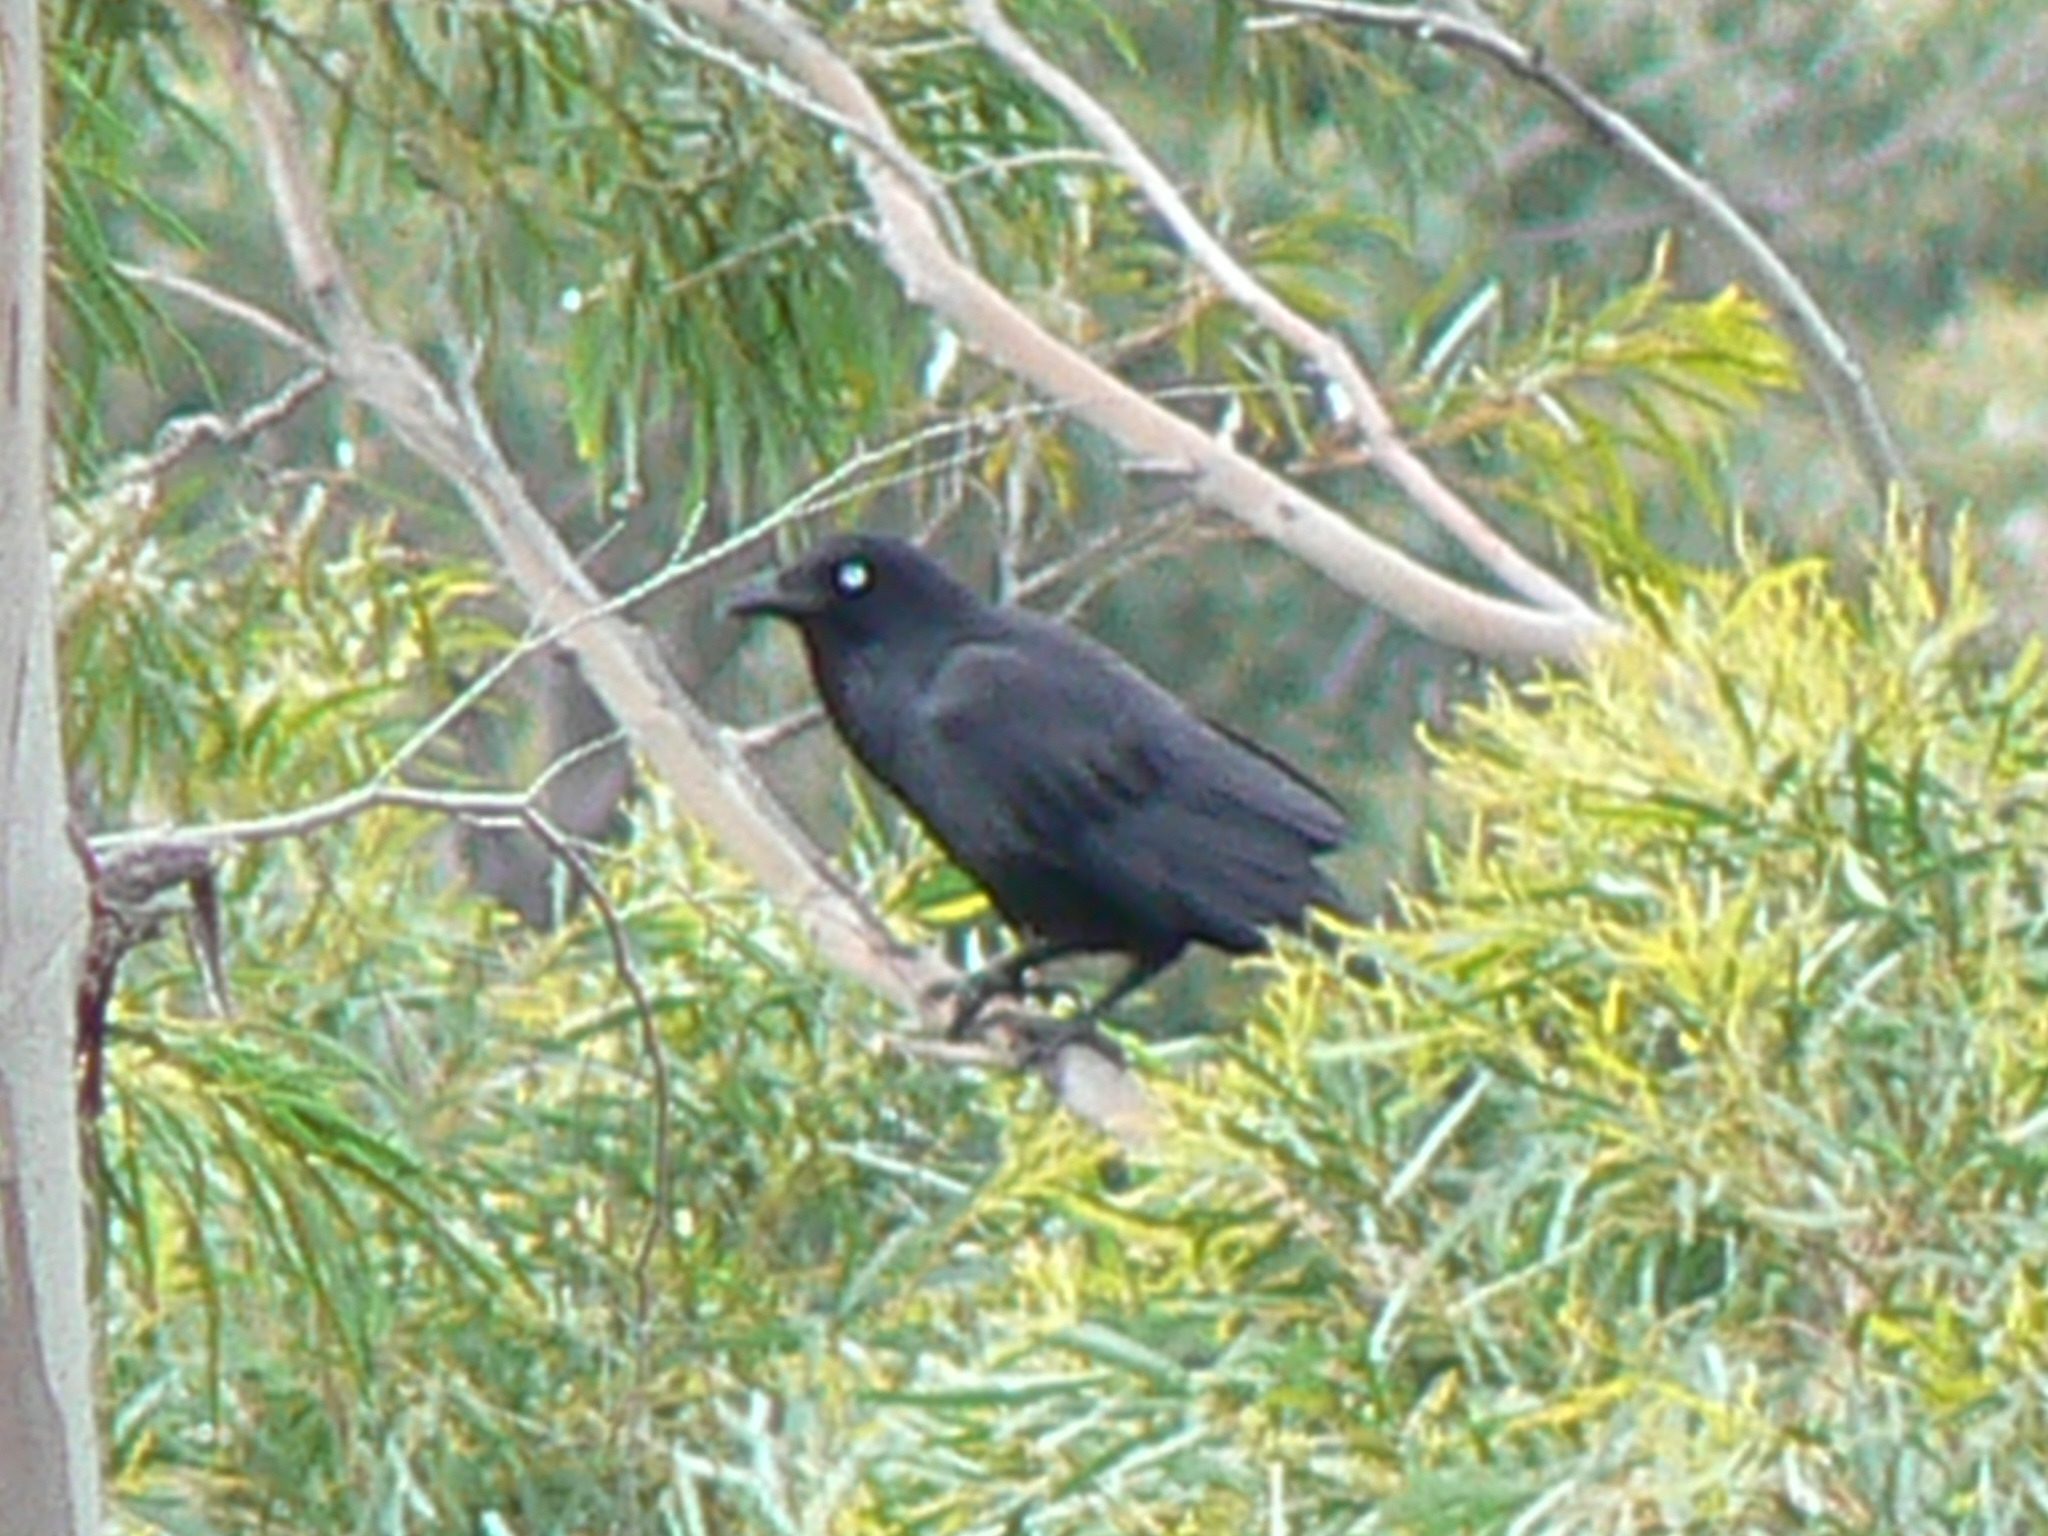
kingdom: Animalia
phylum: Chordata
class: Aves
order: Passeriformes
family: Corvidae
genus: Corvus
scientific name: Corvus tasmanicus
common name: Forest raven
